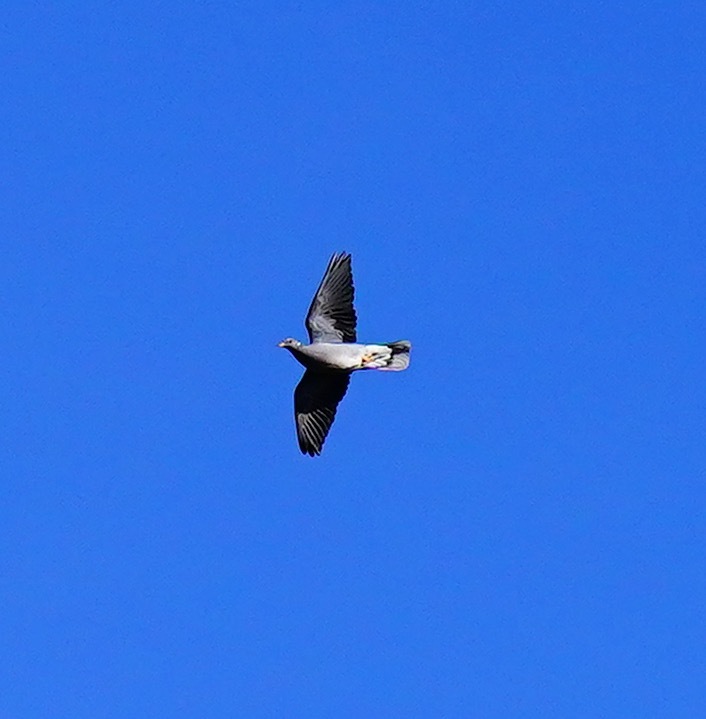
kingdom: Animalia
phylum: Chordata
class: Aves
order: Columbiformes
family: Columbidae
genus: Patagioenas
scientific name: Patagioenas fasciata
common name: Band-tailed pigeon
